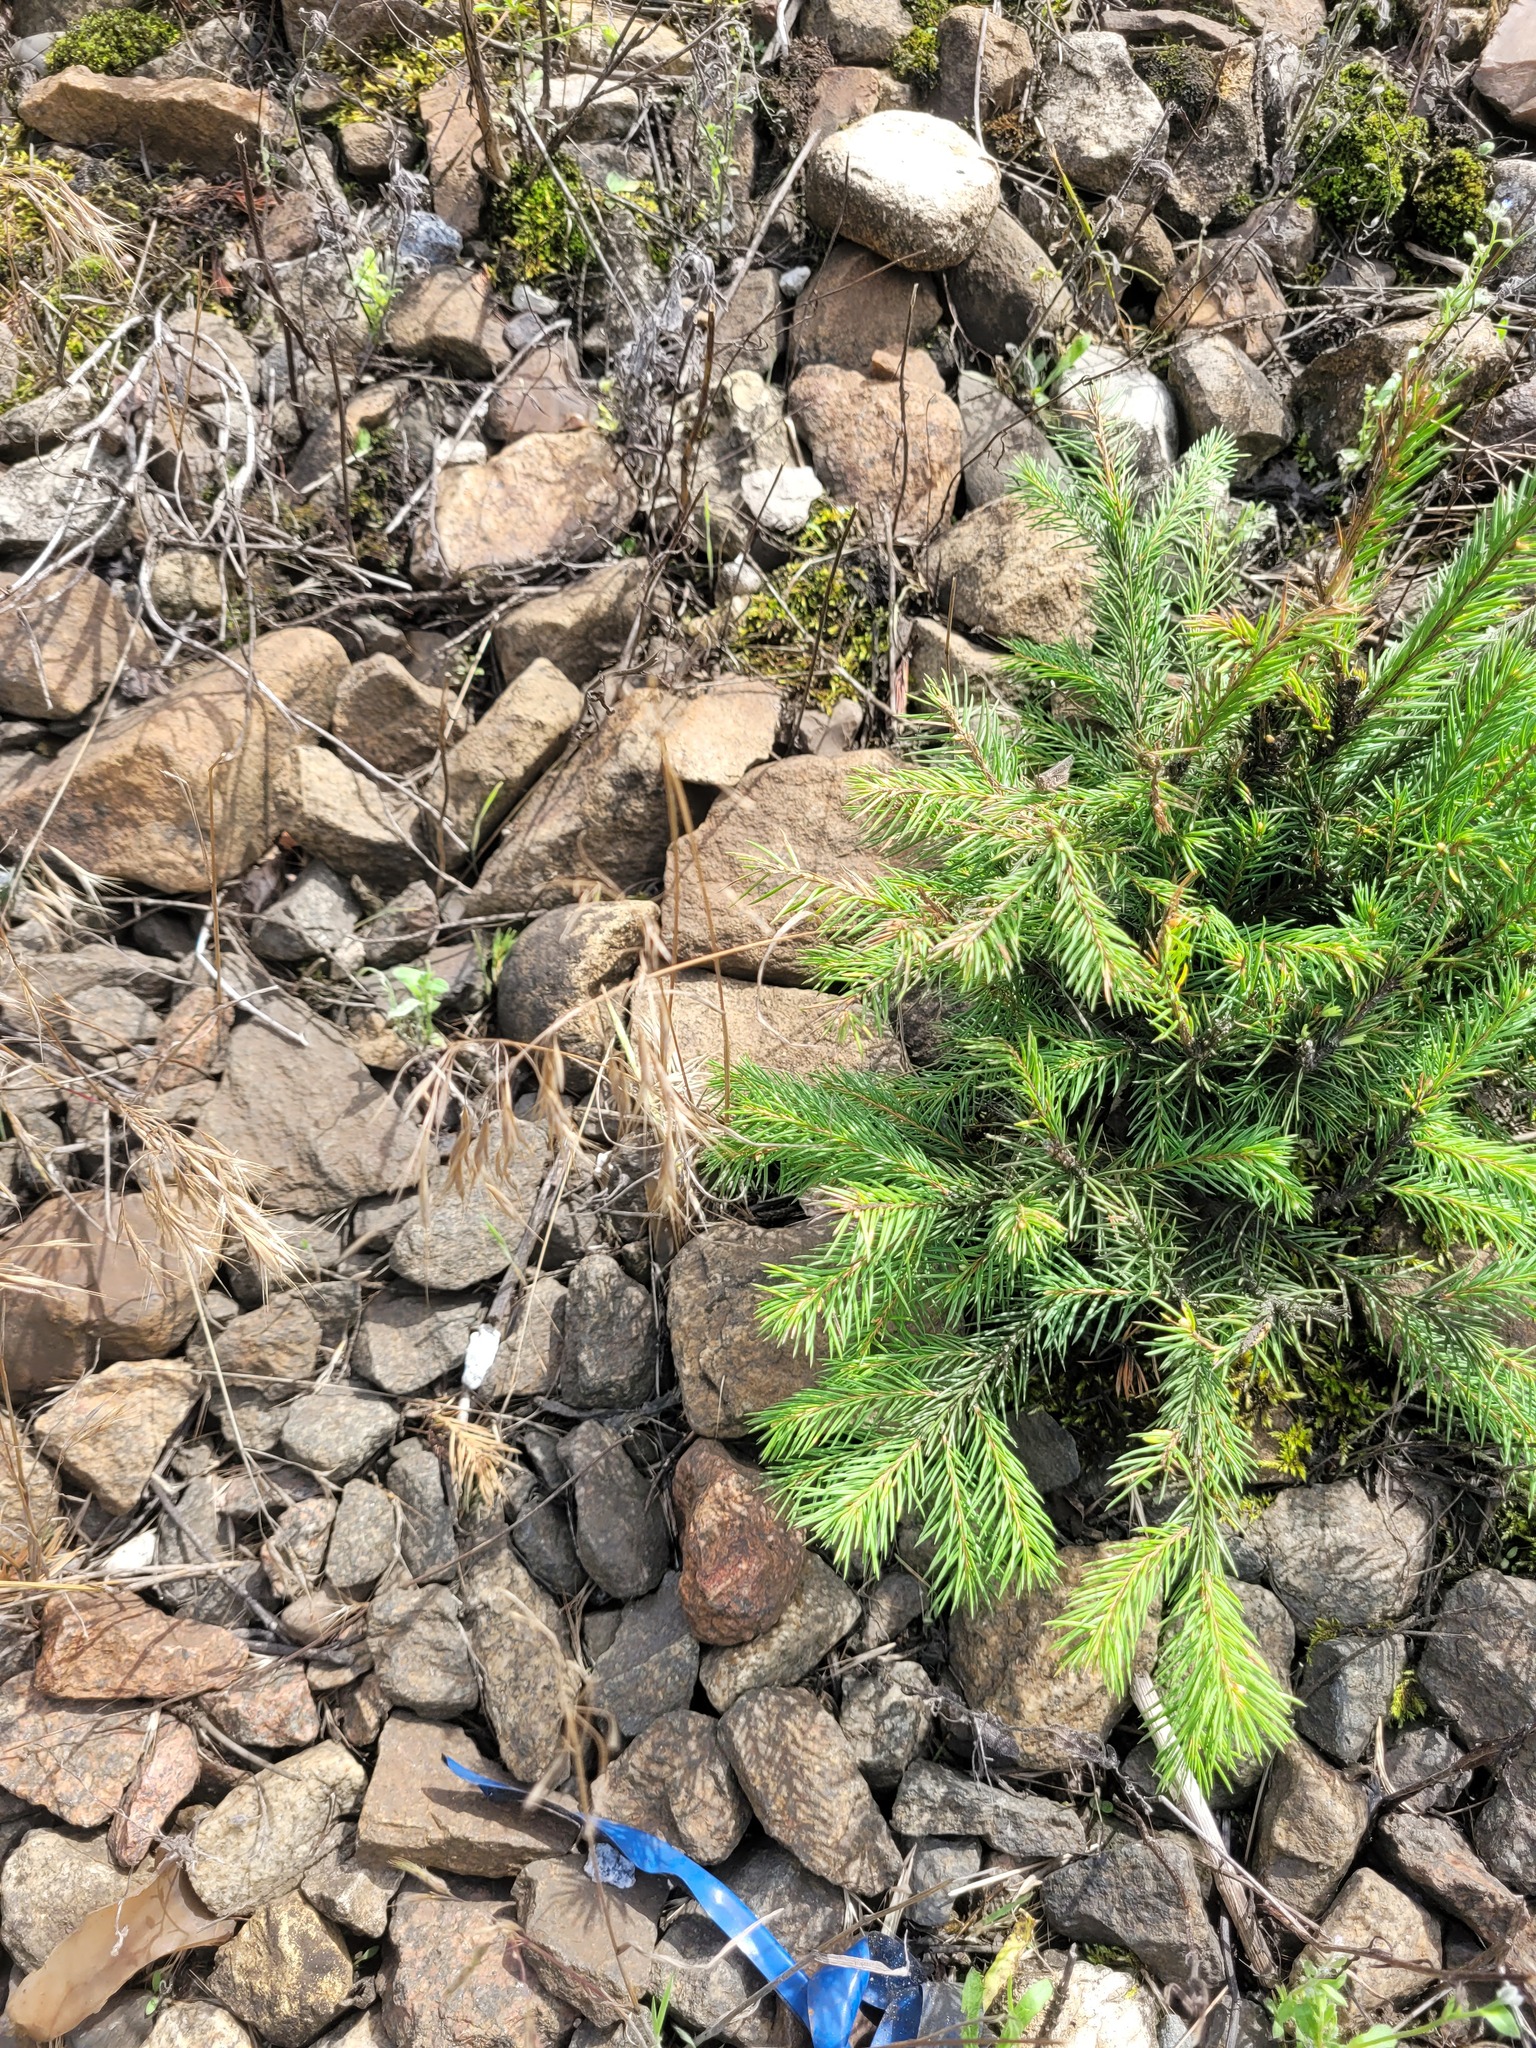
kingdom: Plantae
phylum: Tracheophyta
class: Liliopsida
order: Poales
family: Poaceae
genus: Bromus
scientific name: Bromus tectorum
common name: Cheatgrass
